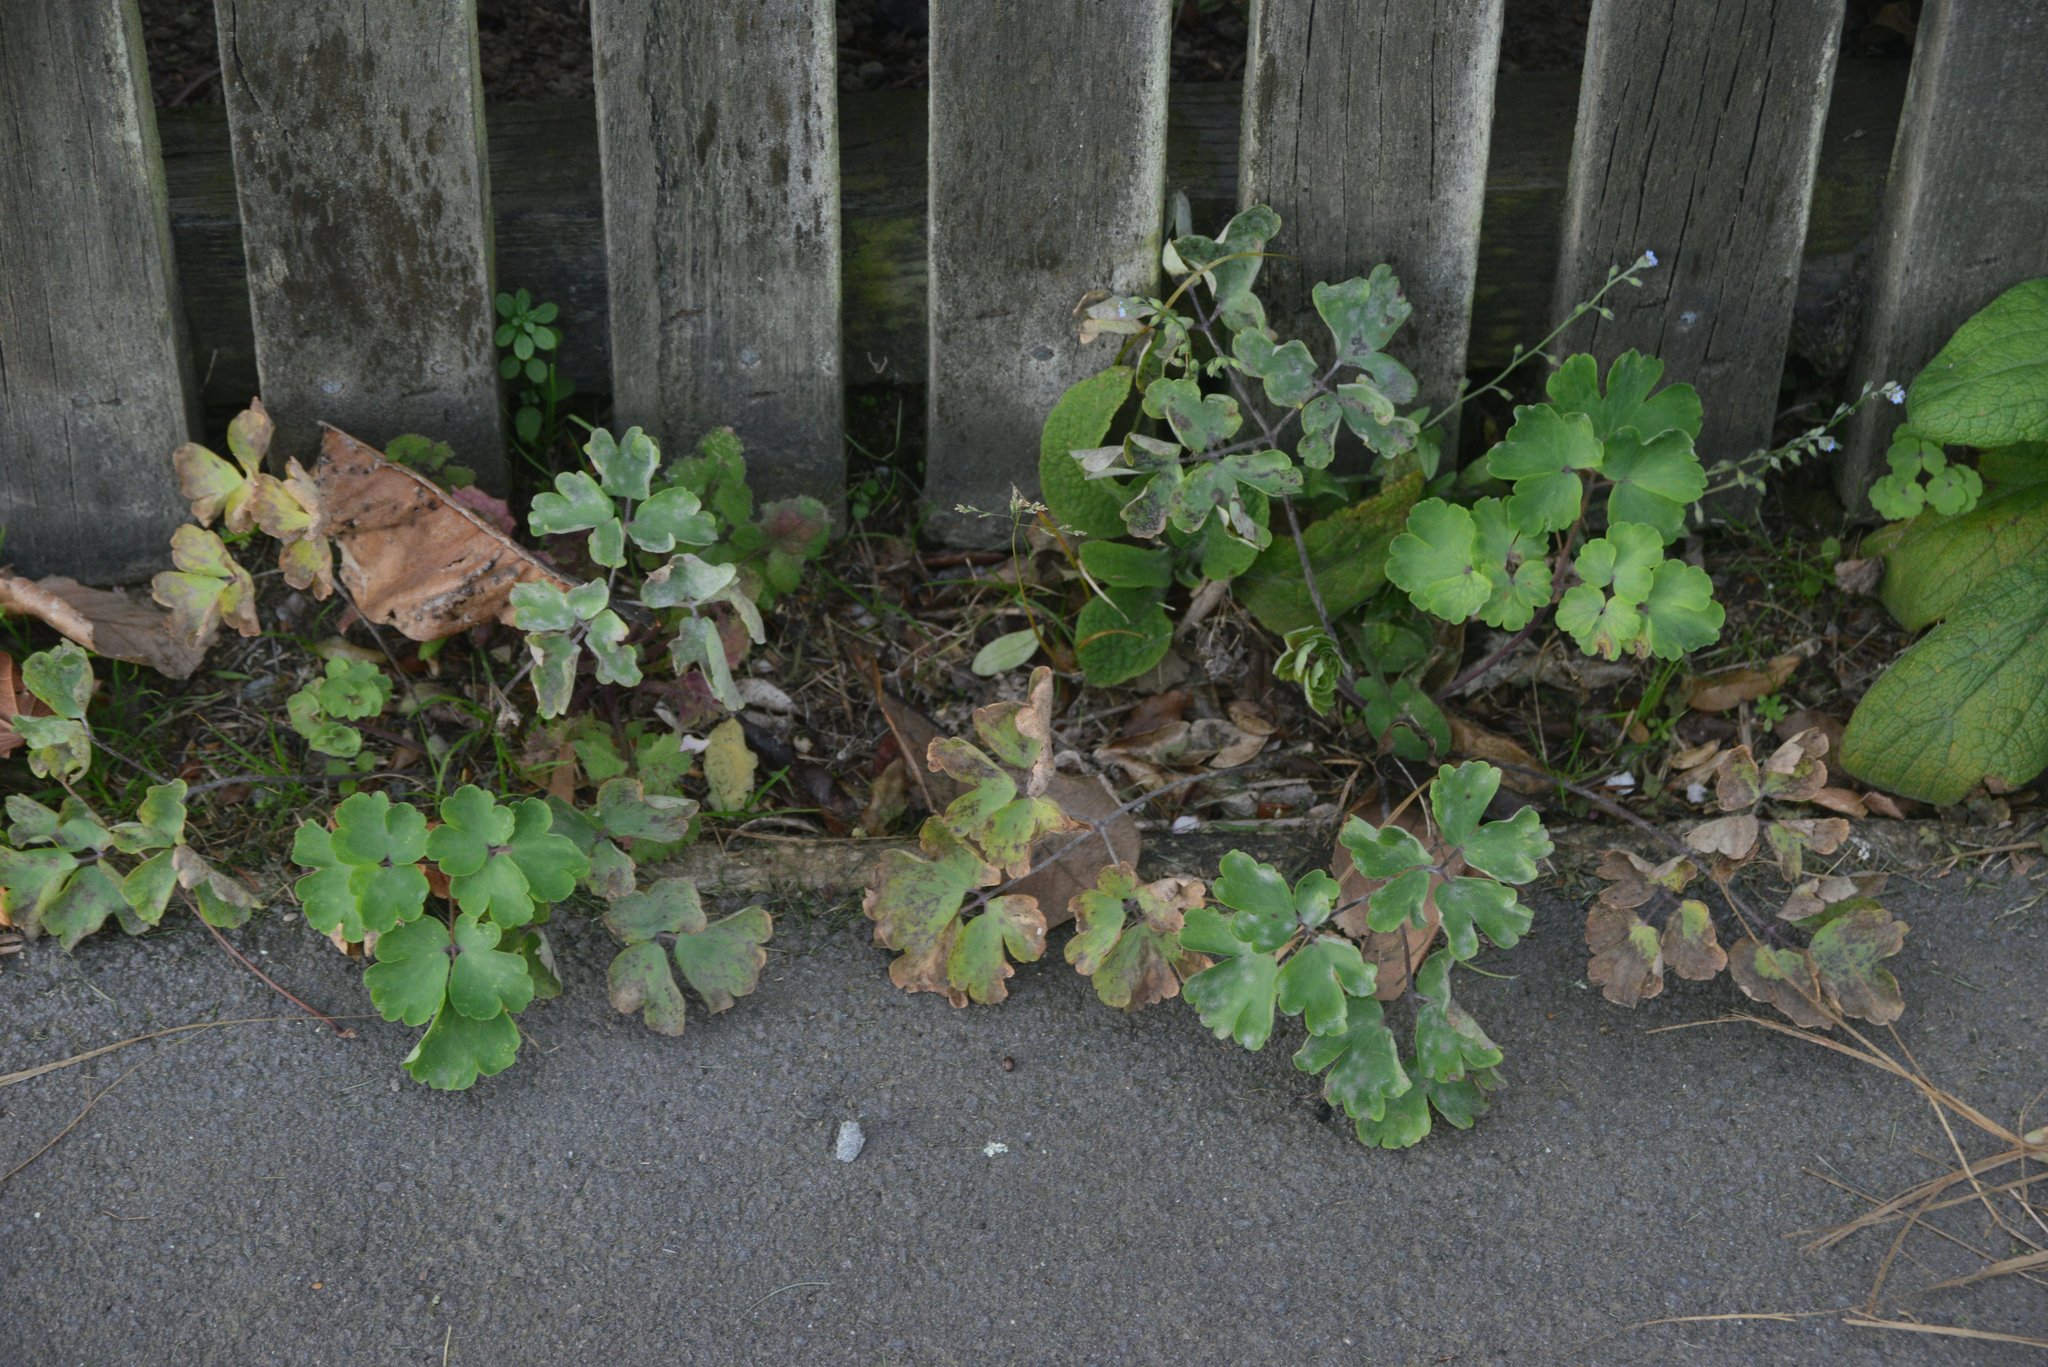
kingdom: Plantae
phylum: Tracheophyta
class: Magnoliopsida
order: Ranunculales
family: Ranunculaceae
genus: Aquilegia
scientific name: Aquilegia vulgaris
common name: Columbine
